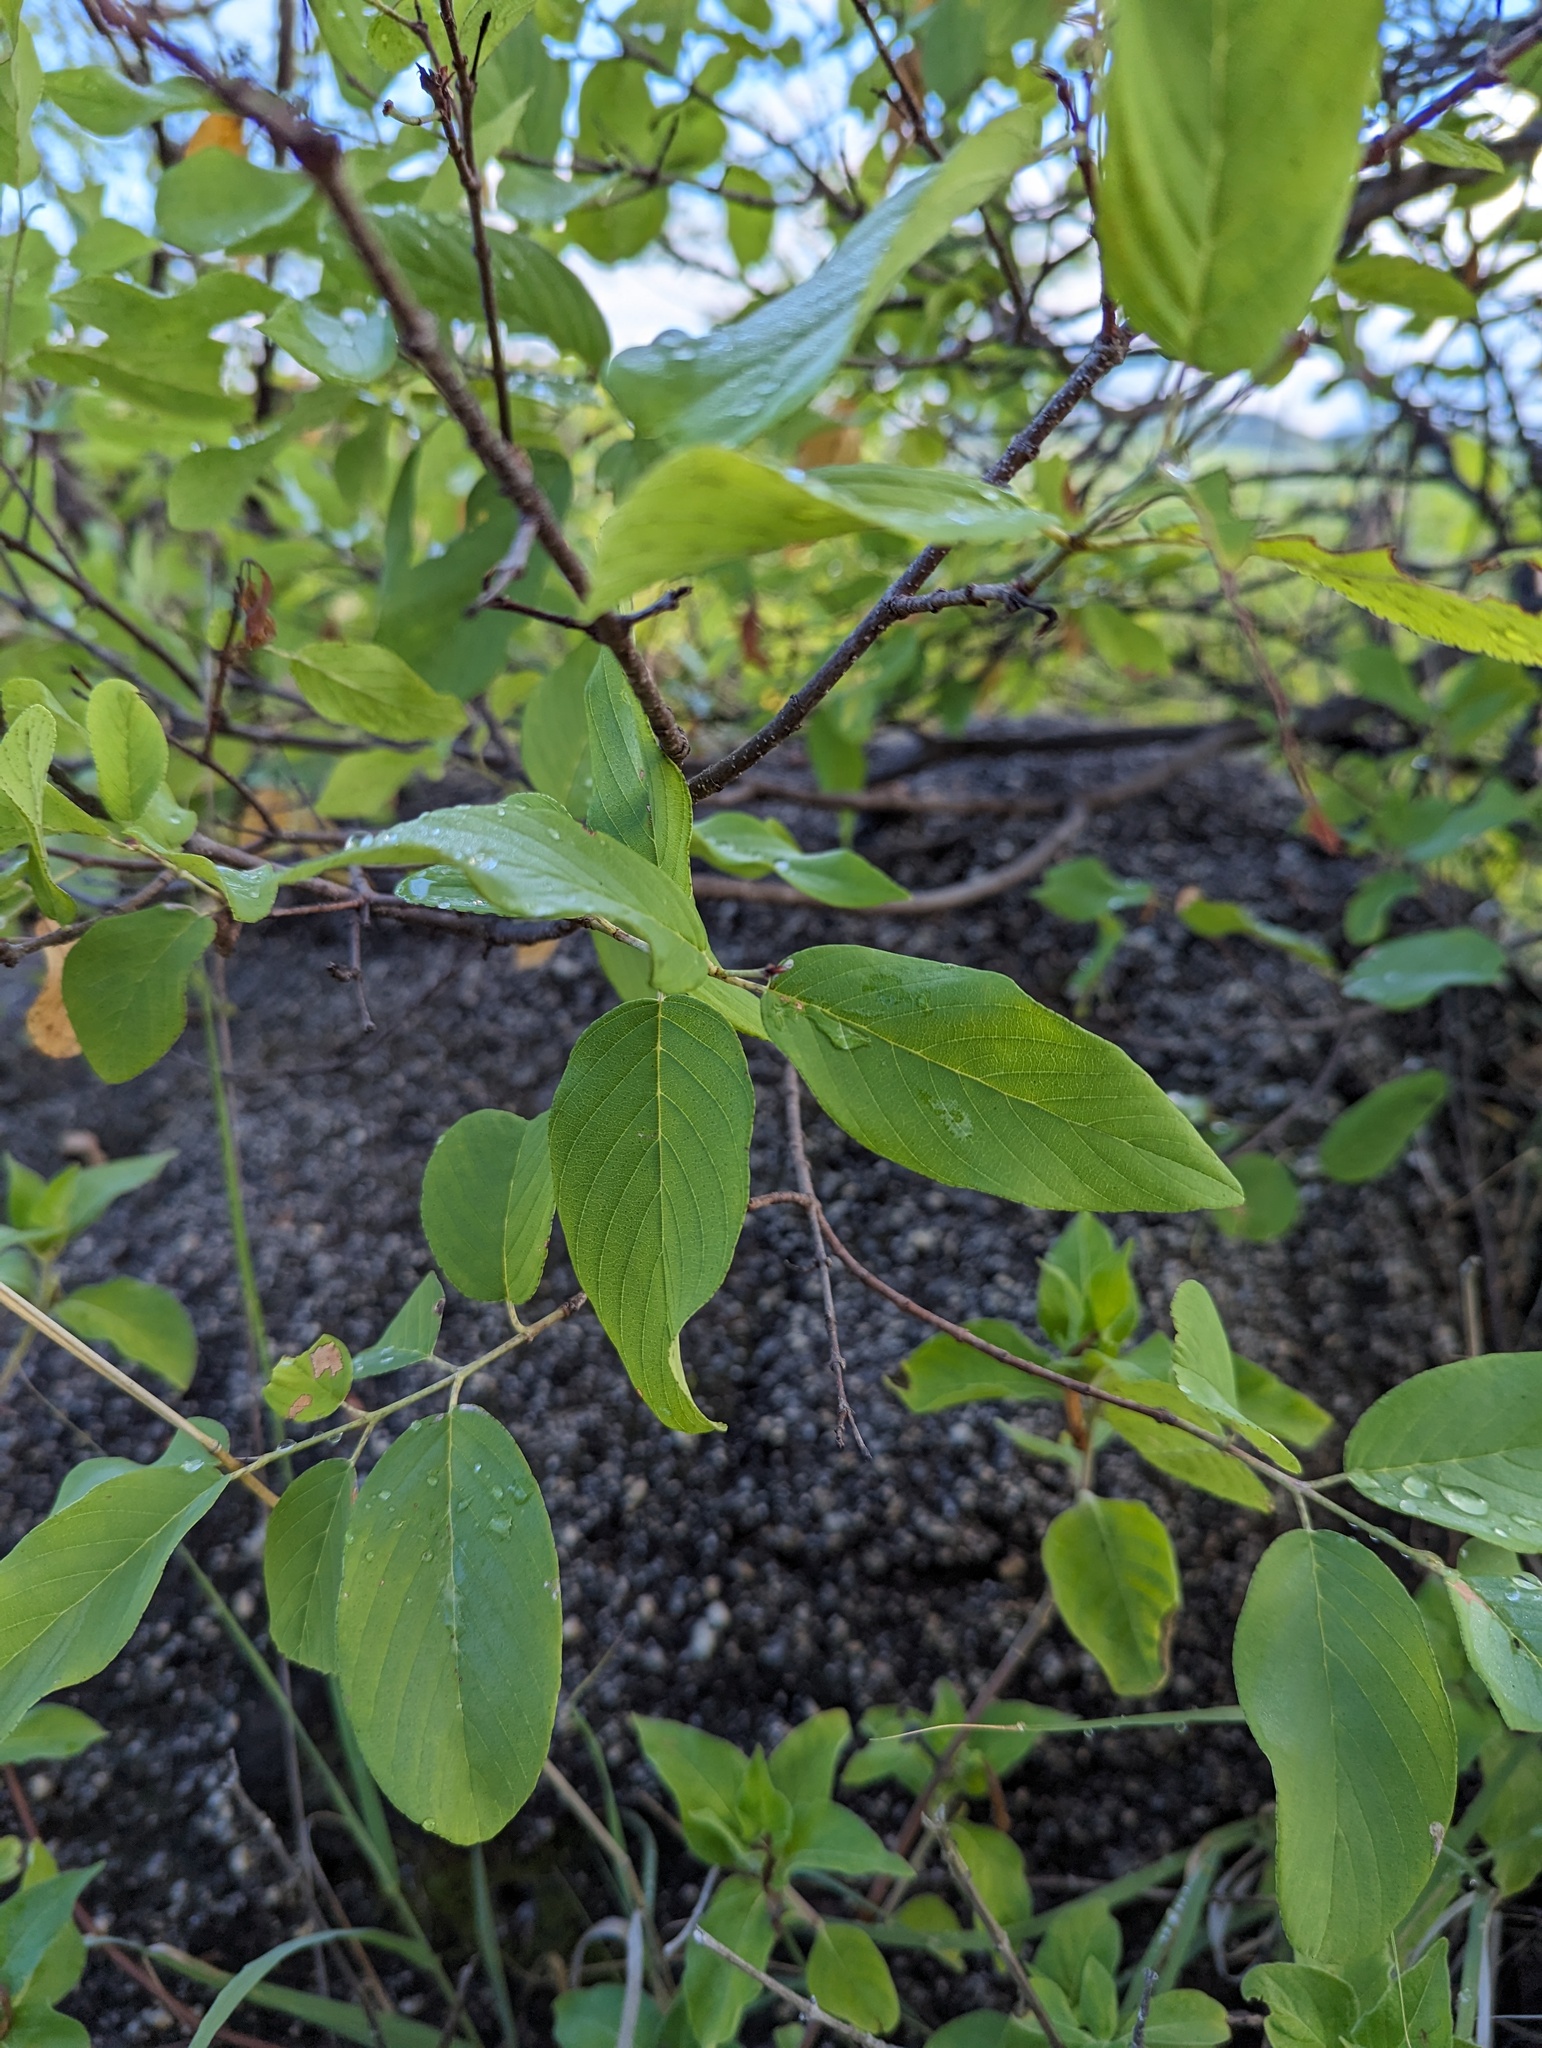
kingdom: Plantae
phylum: Tracheophyta
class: Magnoliopsida
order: Rosales
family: Rhamnaceae
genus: Karwinskia
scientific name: Karwinskia humboldtiana
